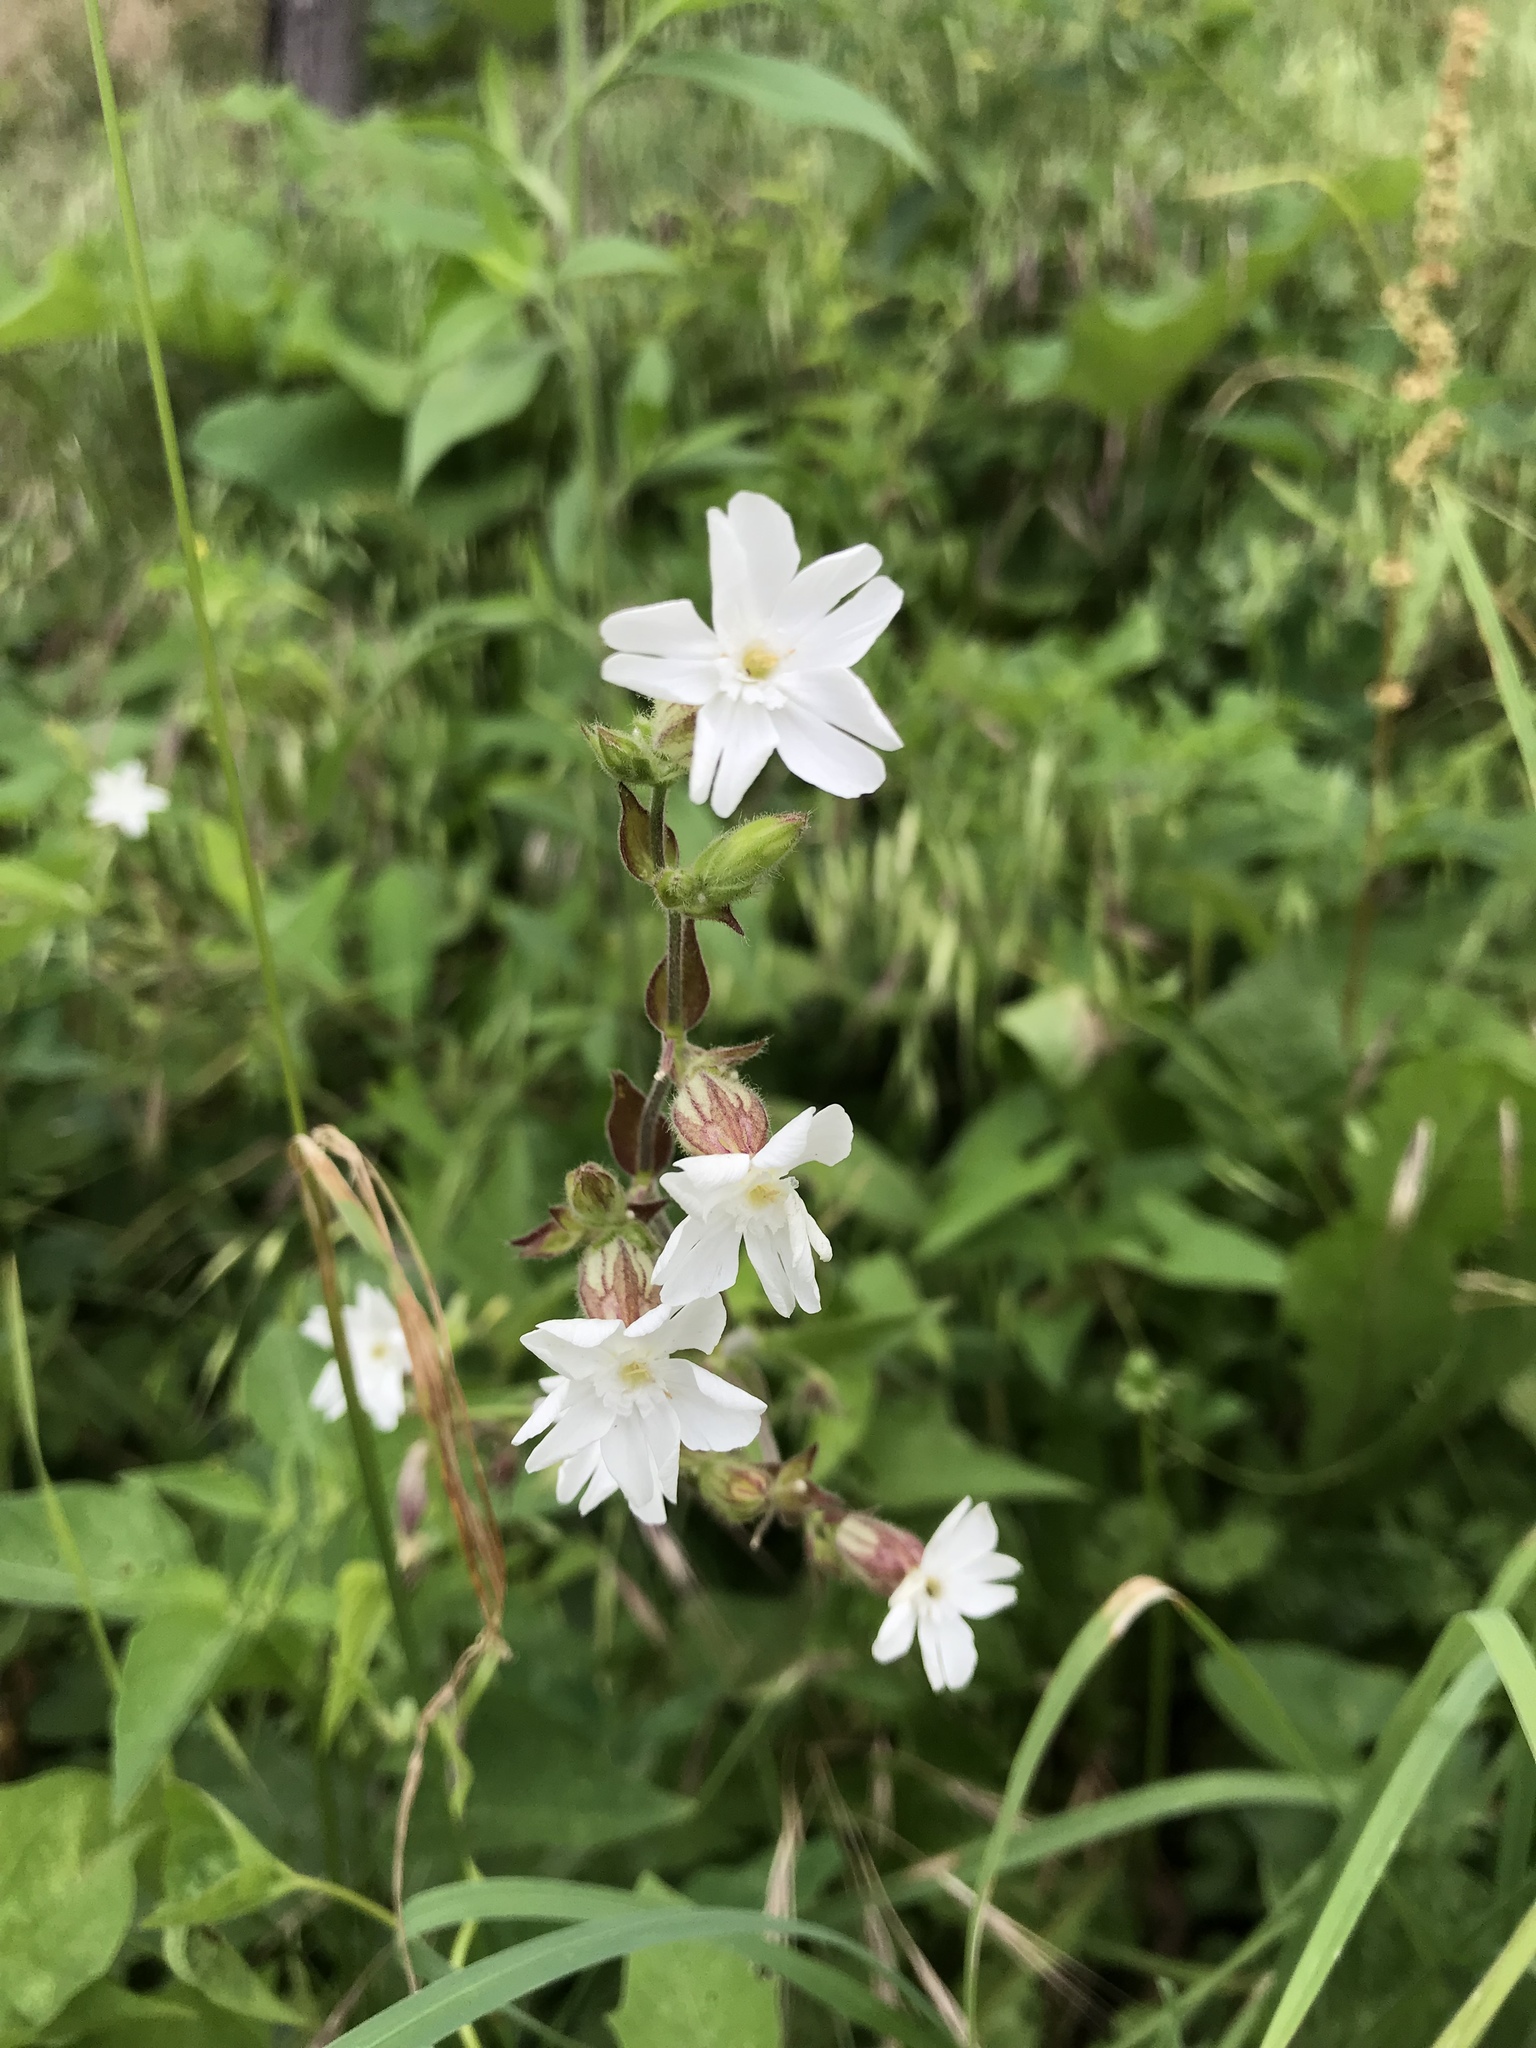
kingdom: Plantae
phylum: Tracheophyta
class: Magnoliopsida
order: Caryophyllales
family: Caryophyllaceae
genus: Silene
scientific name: Silene latifolia
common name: White campion
